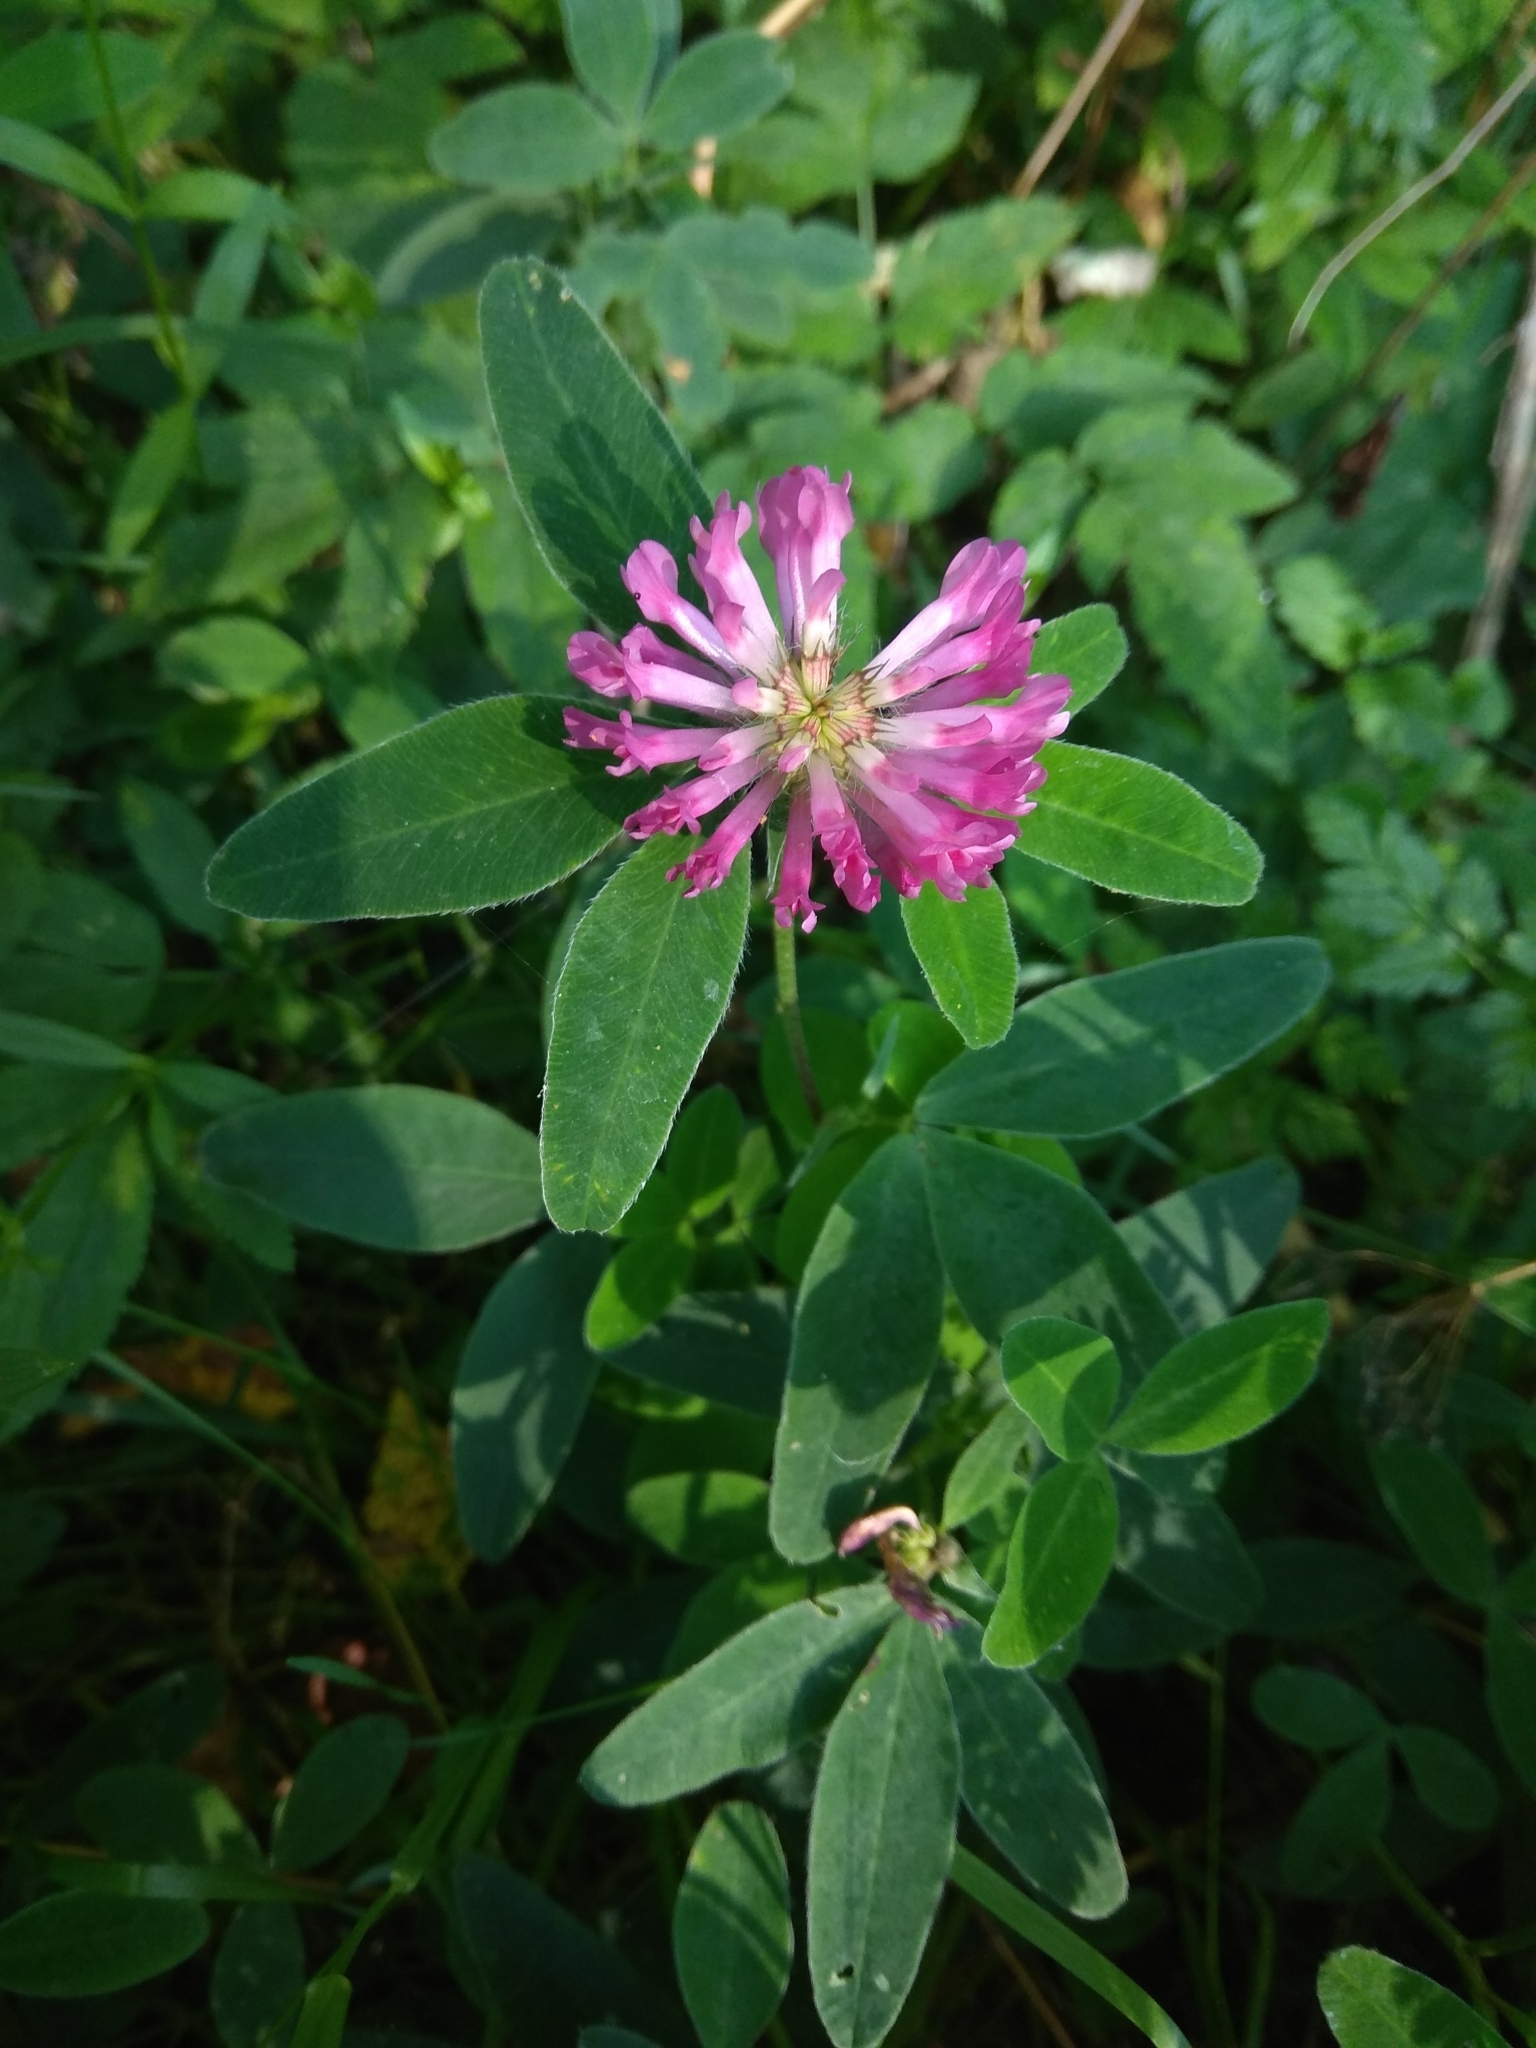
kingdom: Plantae
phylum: Tracheophyta
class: Magnoliopsida
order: Fabales
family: Fabaceae
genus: Trifolium
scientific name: Trifolium medium
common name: Zigzag clover
